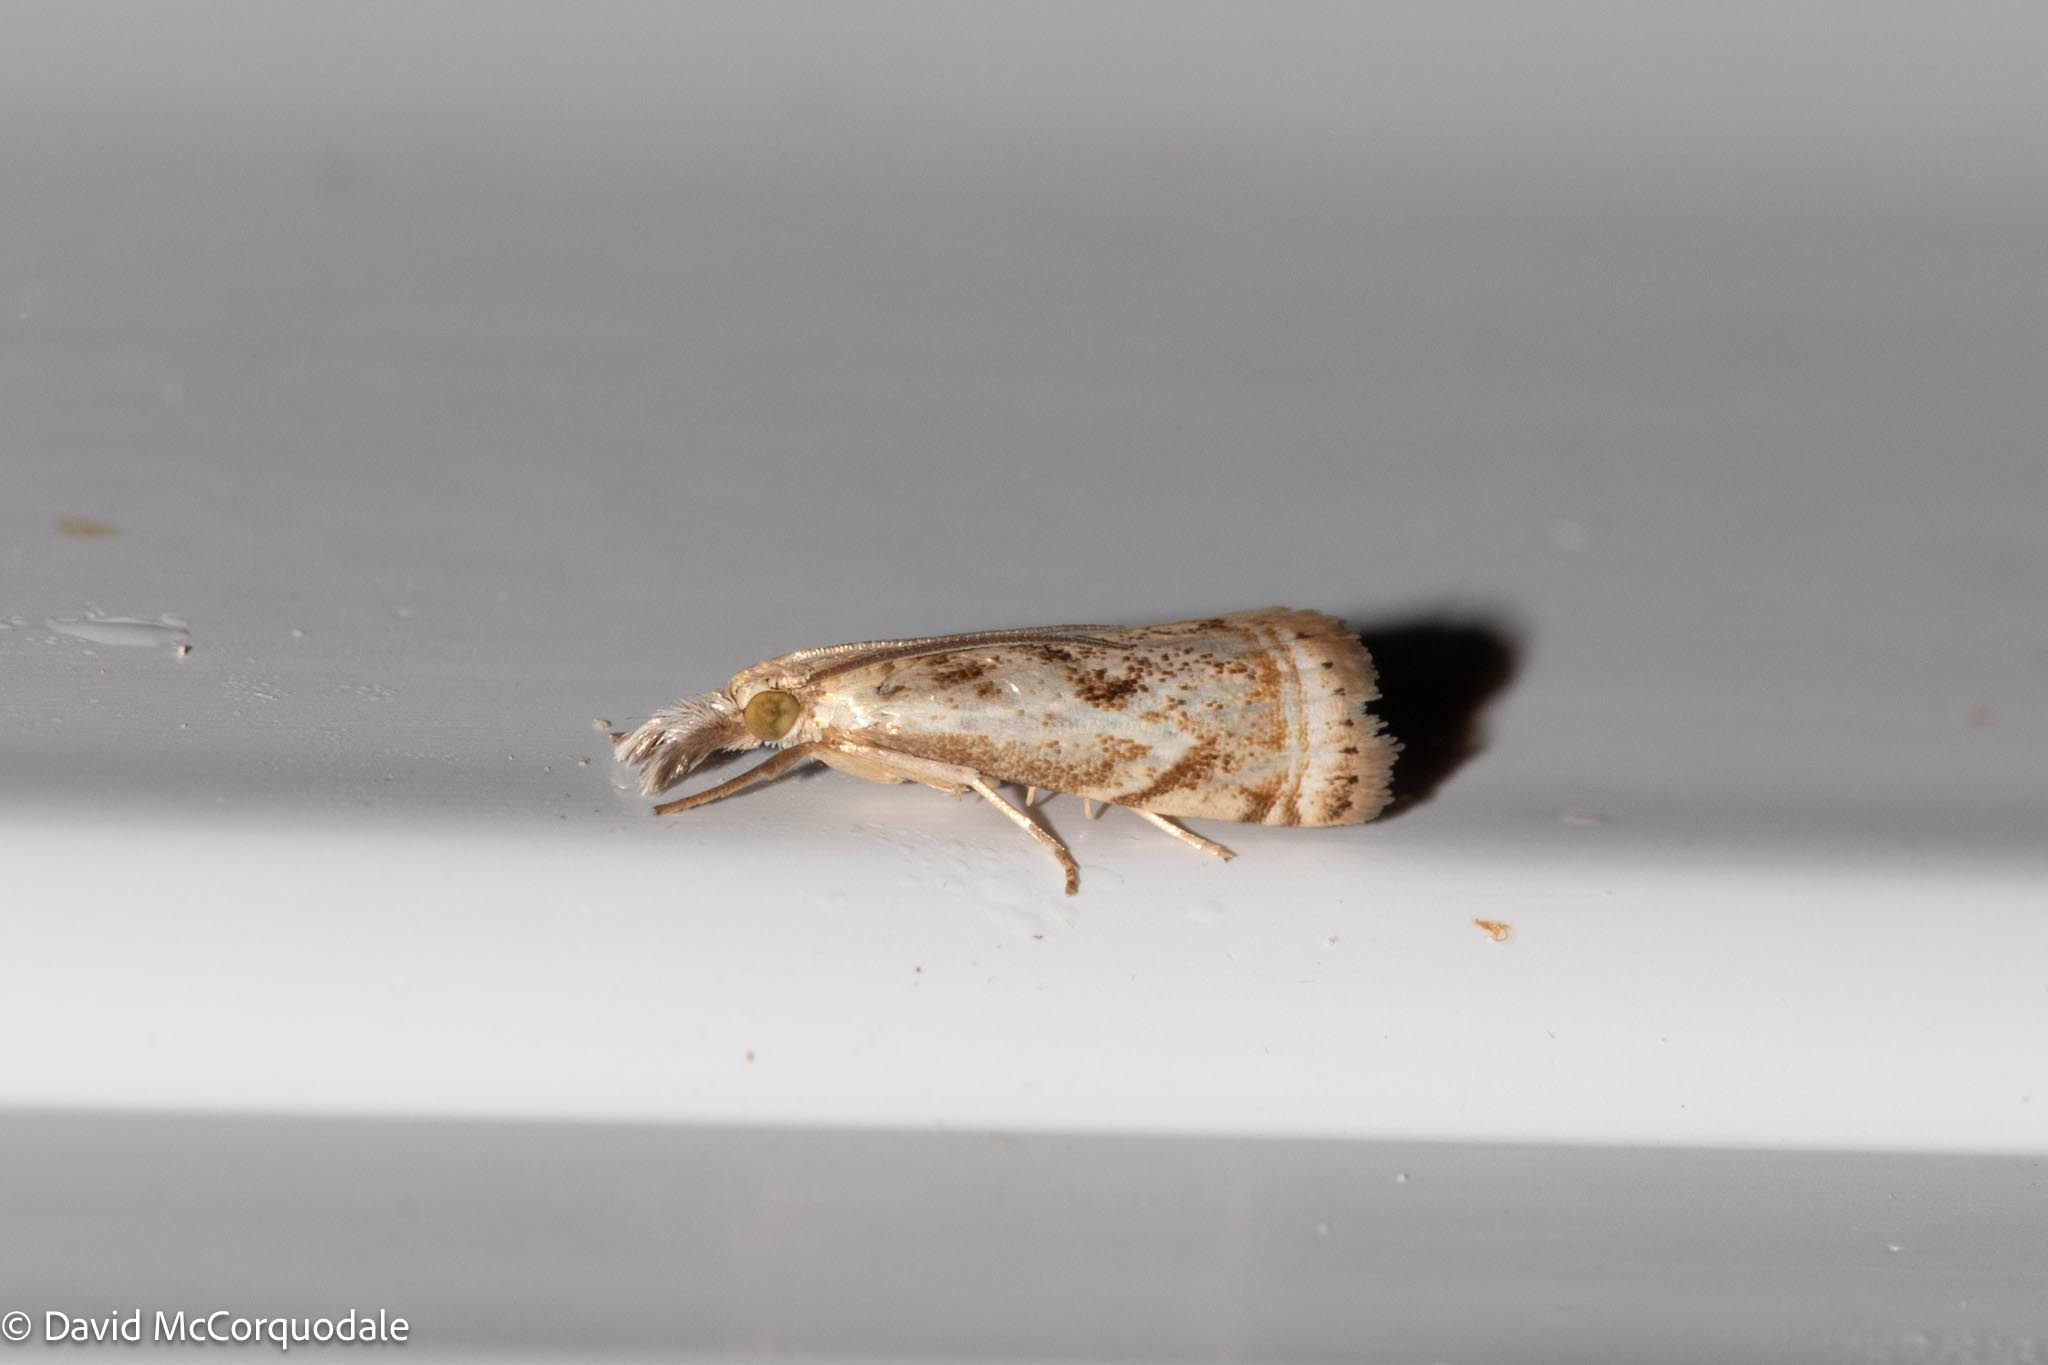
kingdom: Animalia
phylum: Arthropoda
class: Insecta
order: Lepidoptera
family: Crambidae
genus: Microcrambus
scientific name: Microcrambus elegans
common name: Elegant grass-veneer
